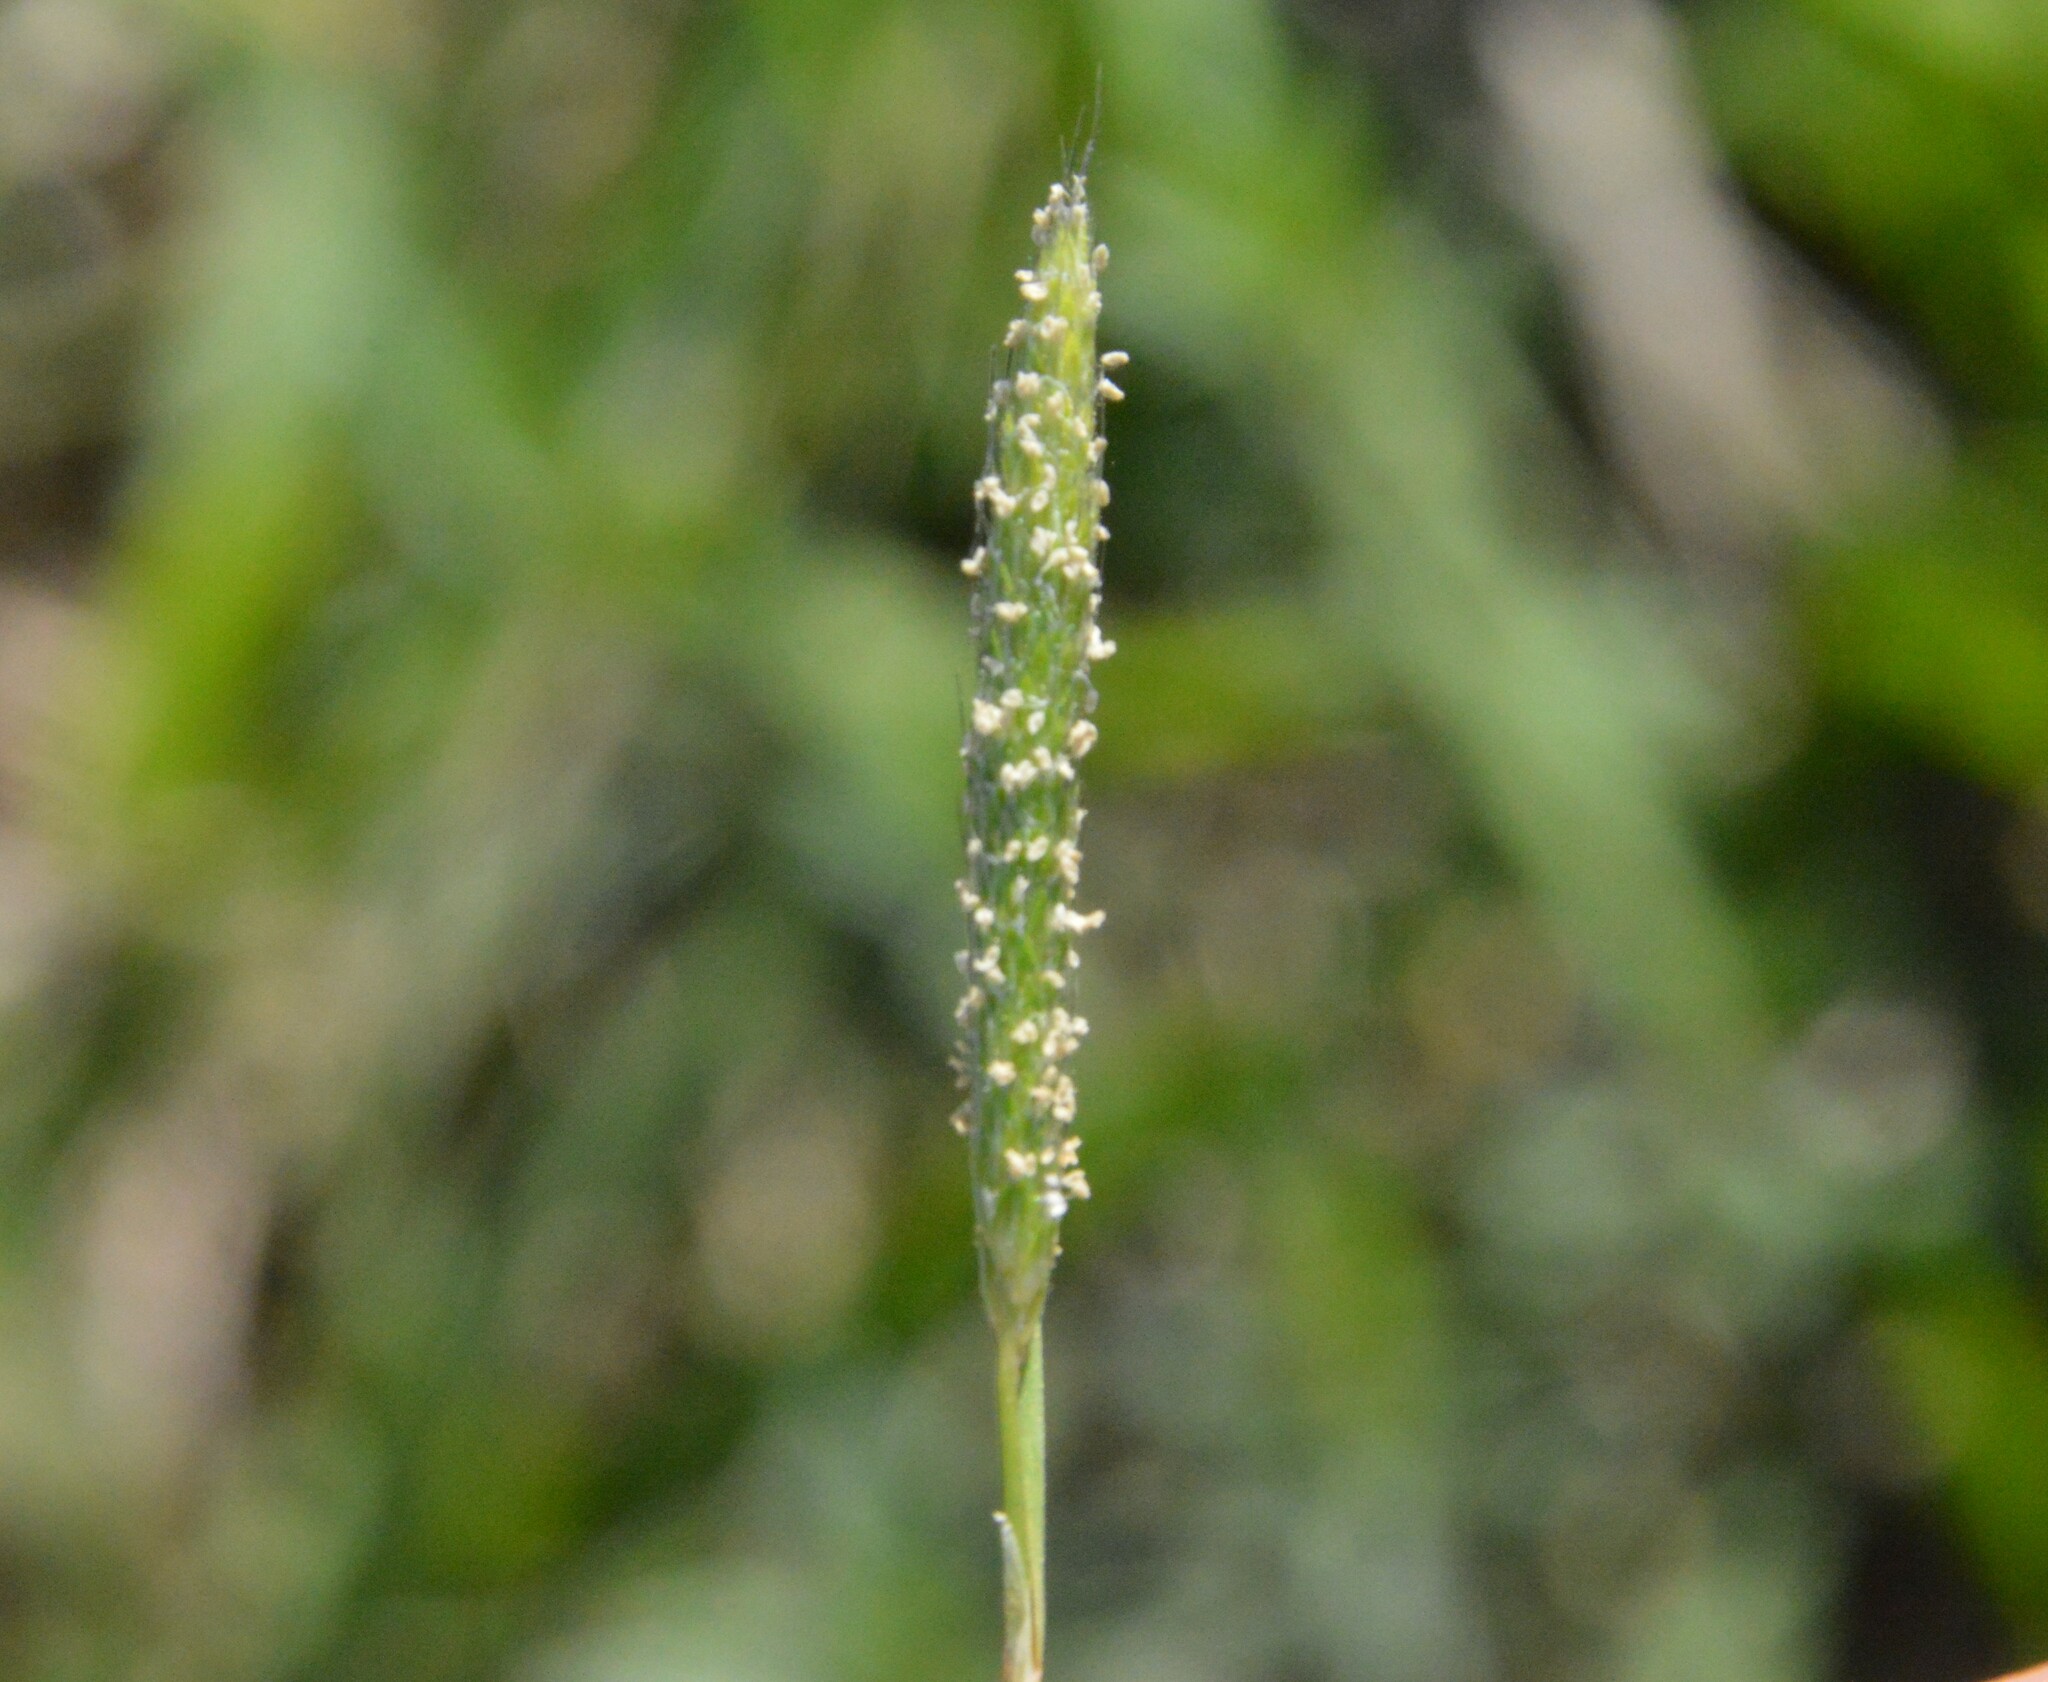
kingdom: Plantae
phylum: Tracheophyta
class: Liliopsida
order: Poales
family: Poaceae
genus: Alopecurus
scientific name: Alopecurus carolinianus
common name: Tufted foxtail
